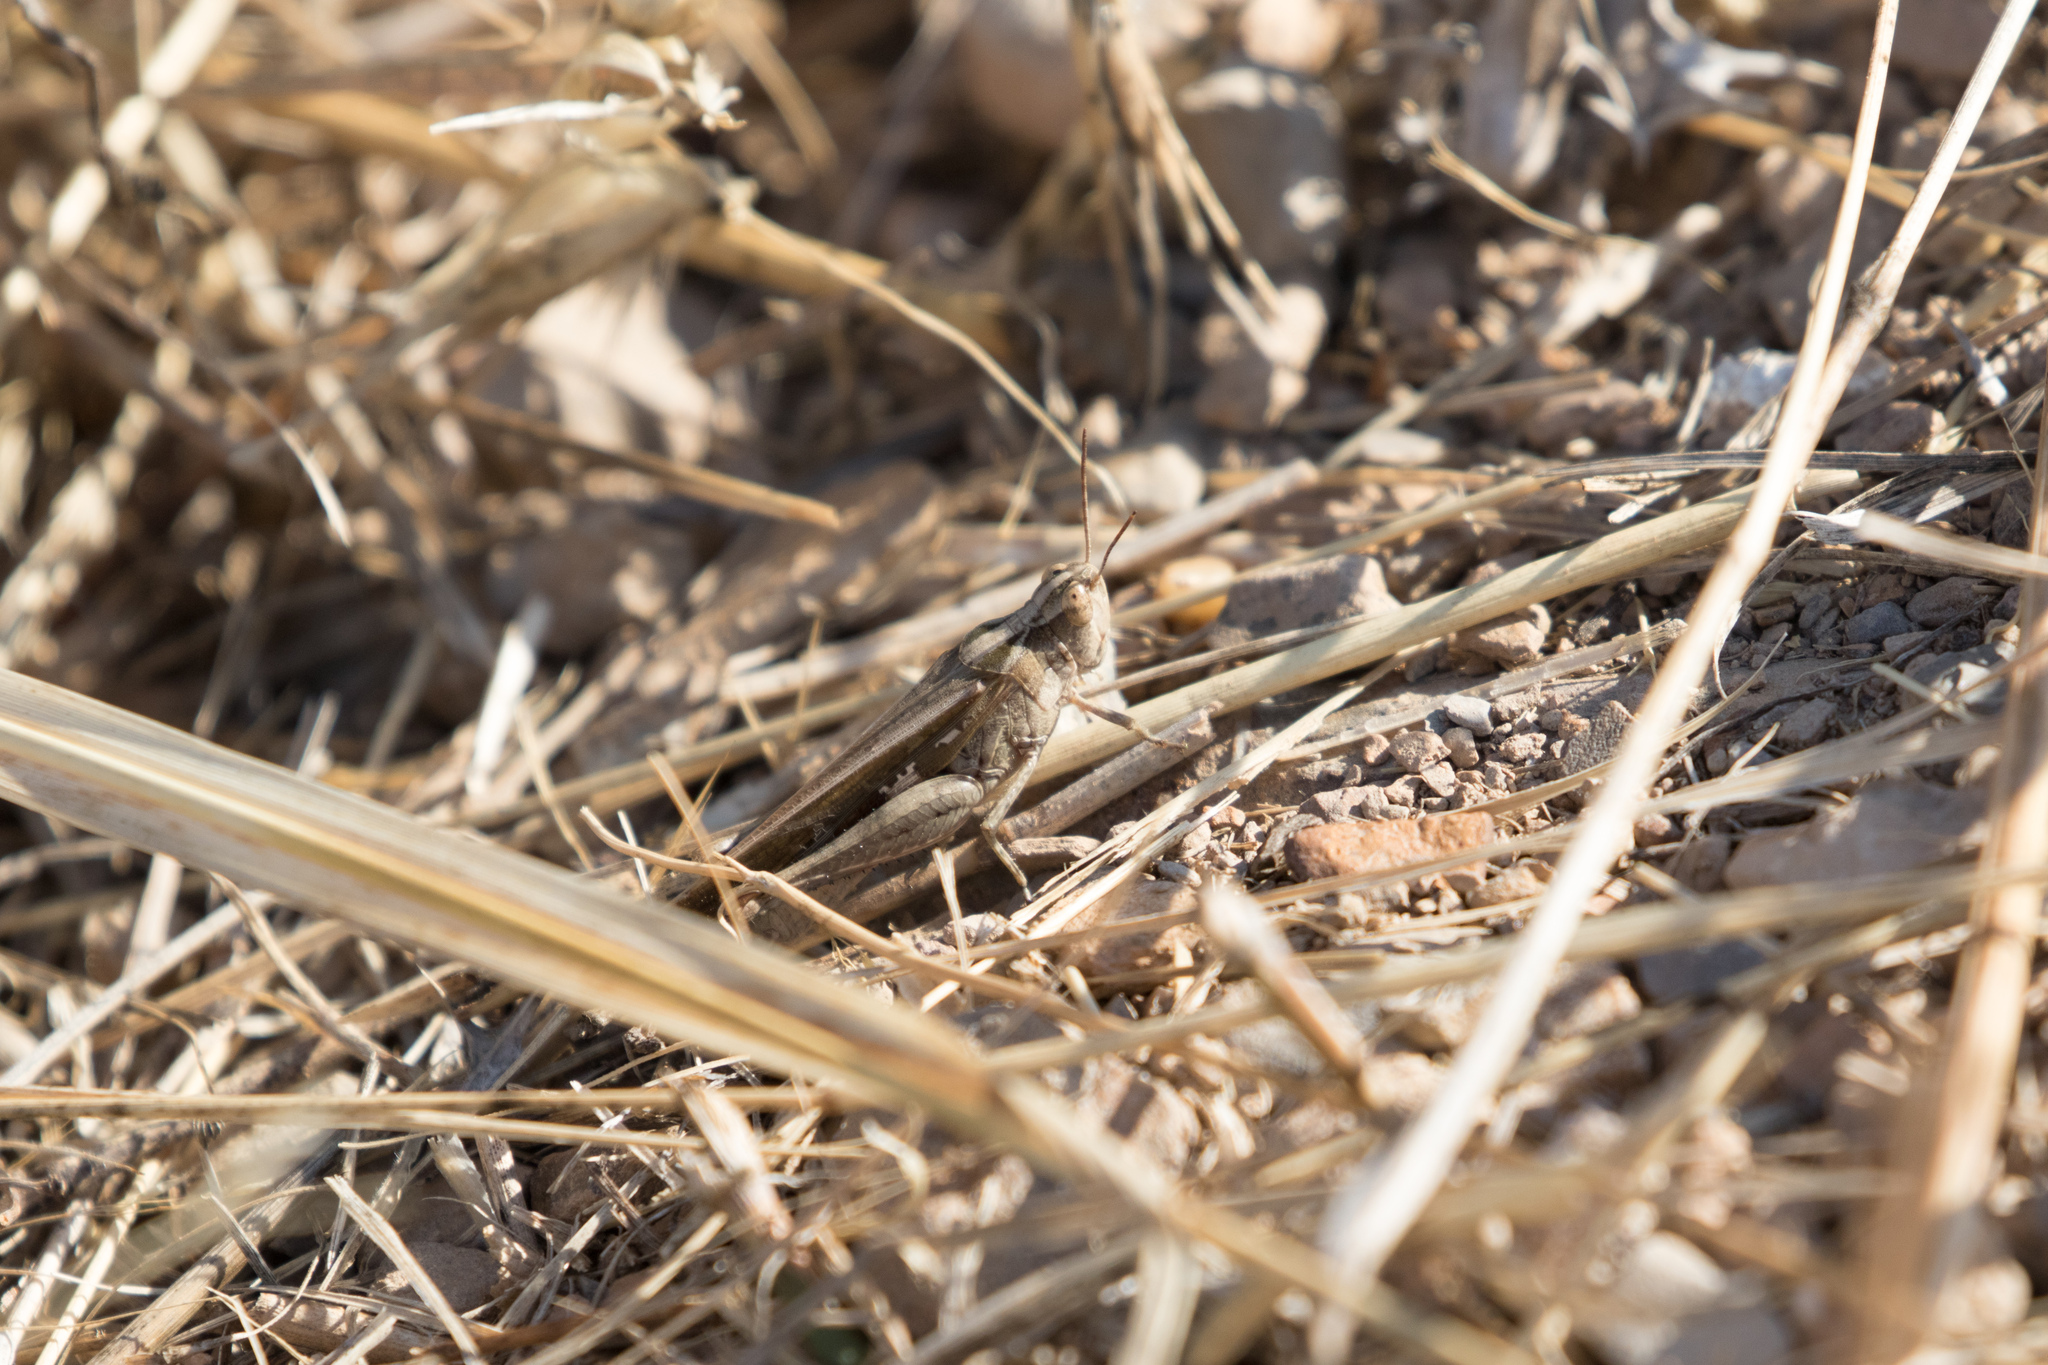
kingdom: Animalia
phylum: Arthropoda
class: Insecta
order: Orthoptera
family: Acrididae
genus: Aiolopus
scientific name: Aiolopus
